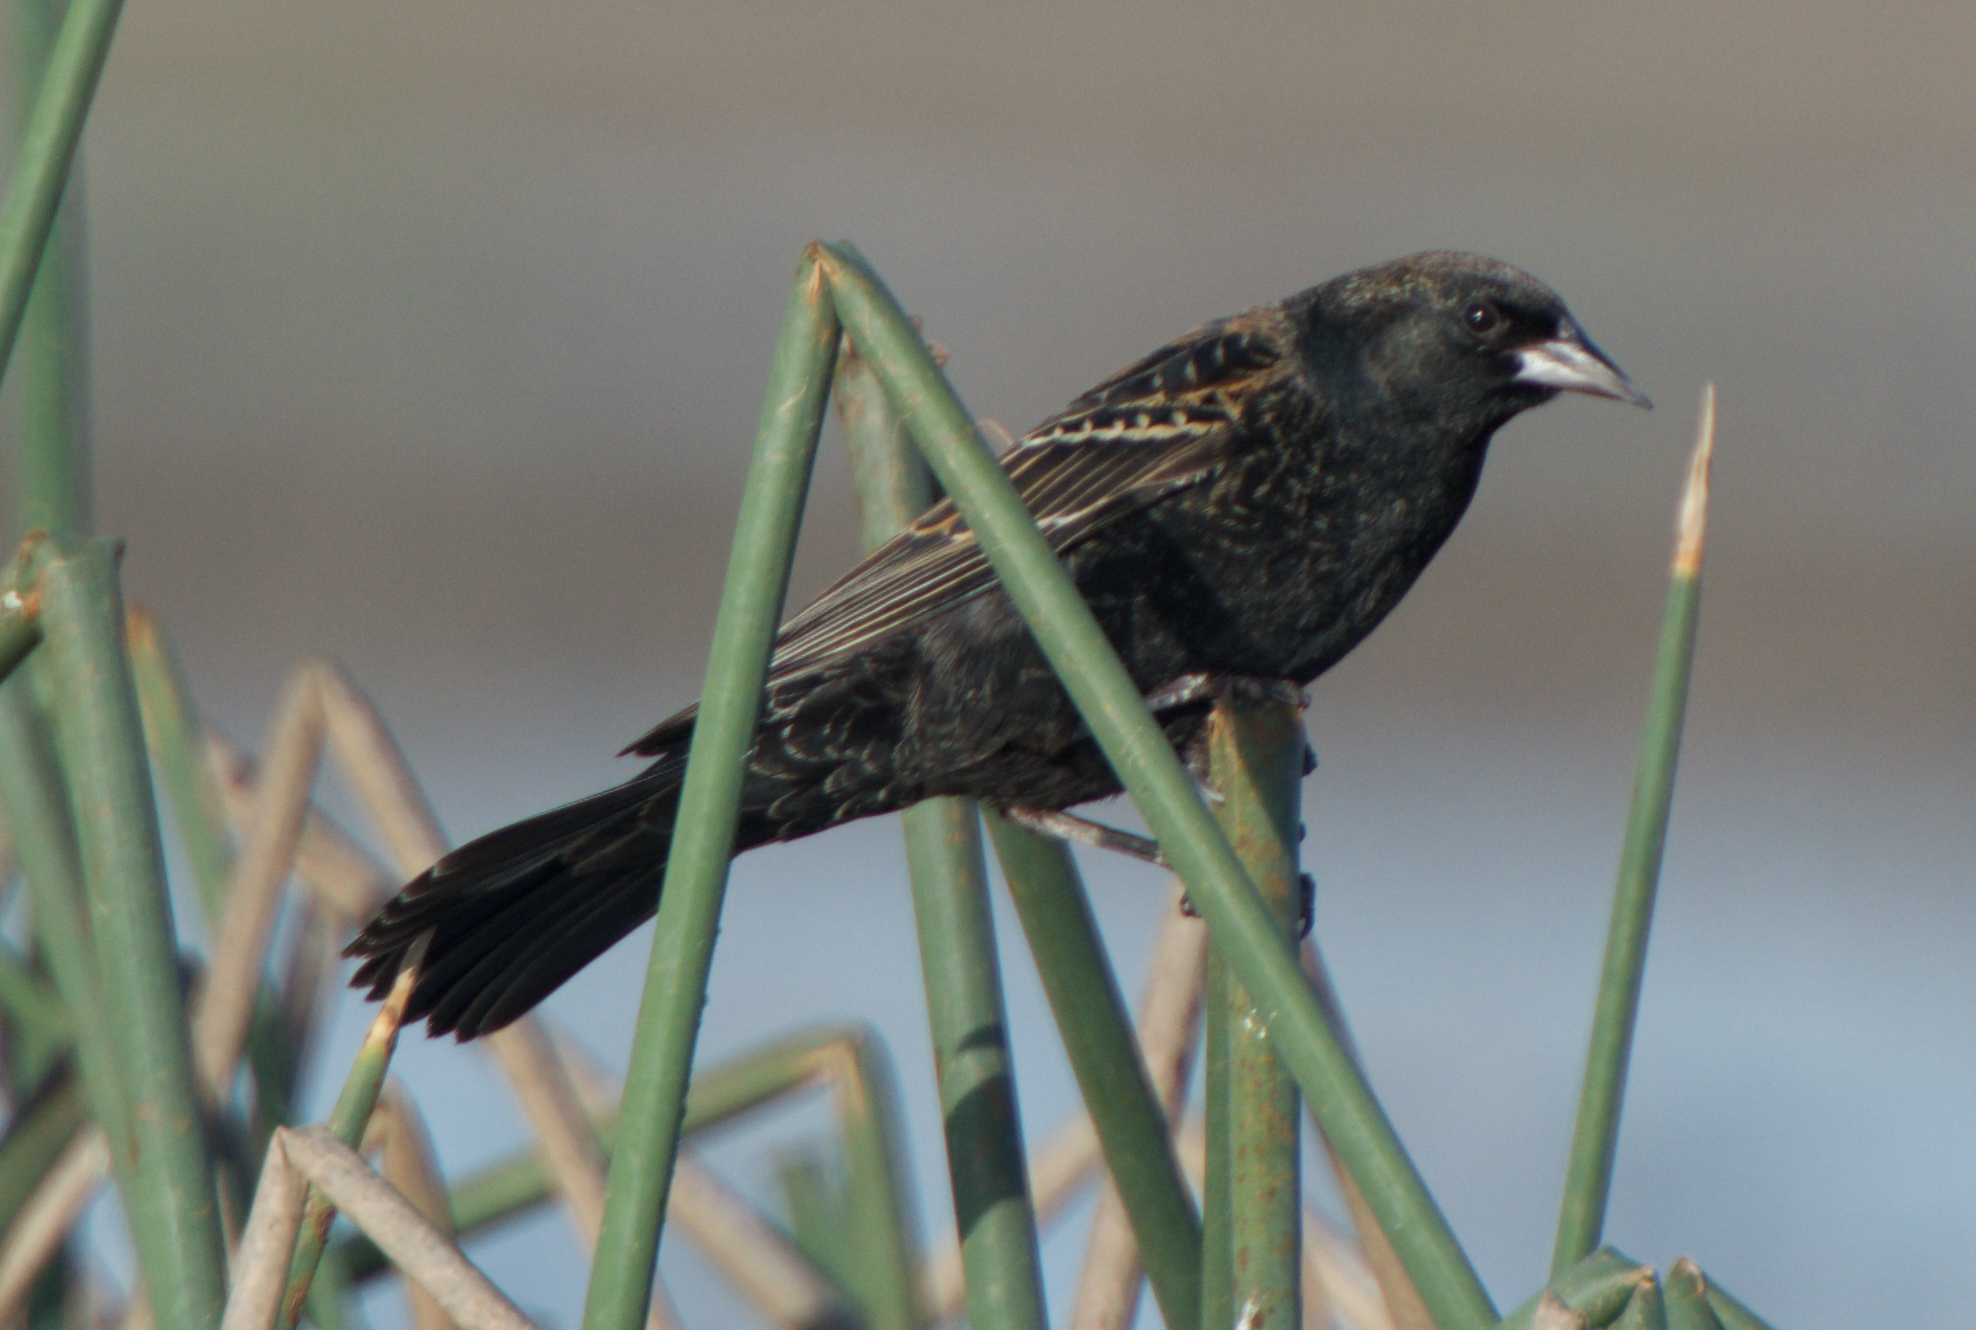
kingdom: Animalia
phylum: Chordata
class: Aves
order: Passeriformes
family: Icteridae
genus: Agelaius
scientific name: Agelaius phoeniceus
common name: Red-winged blackbird
